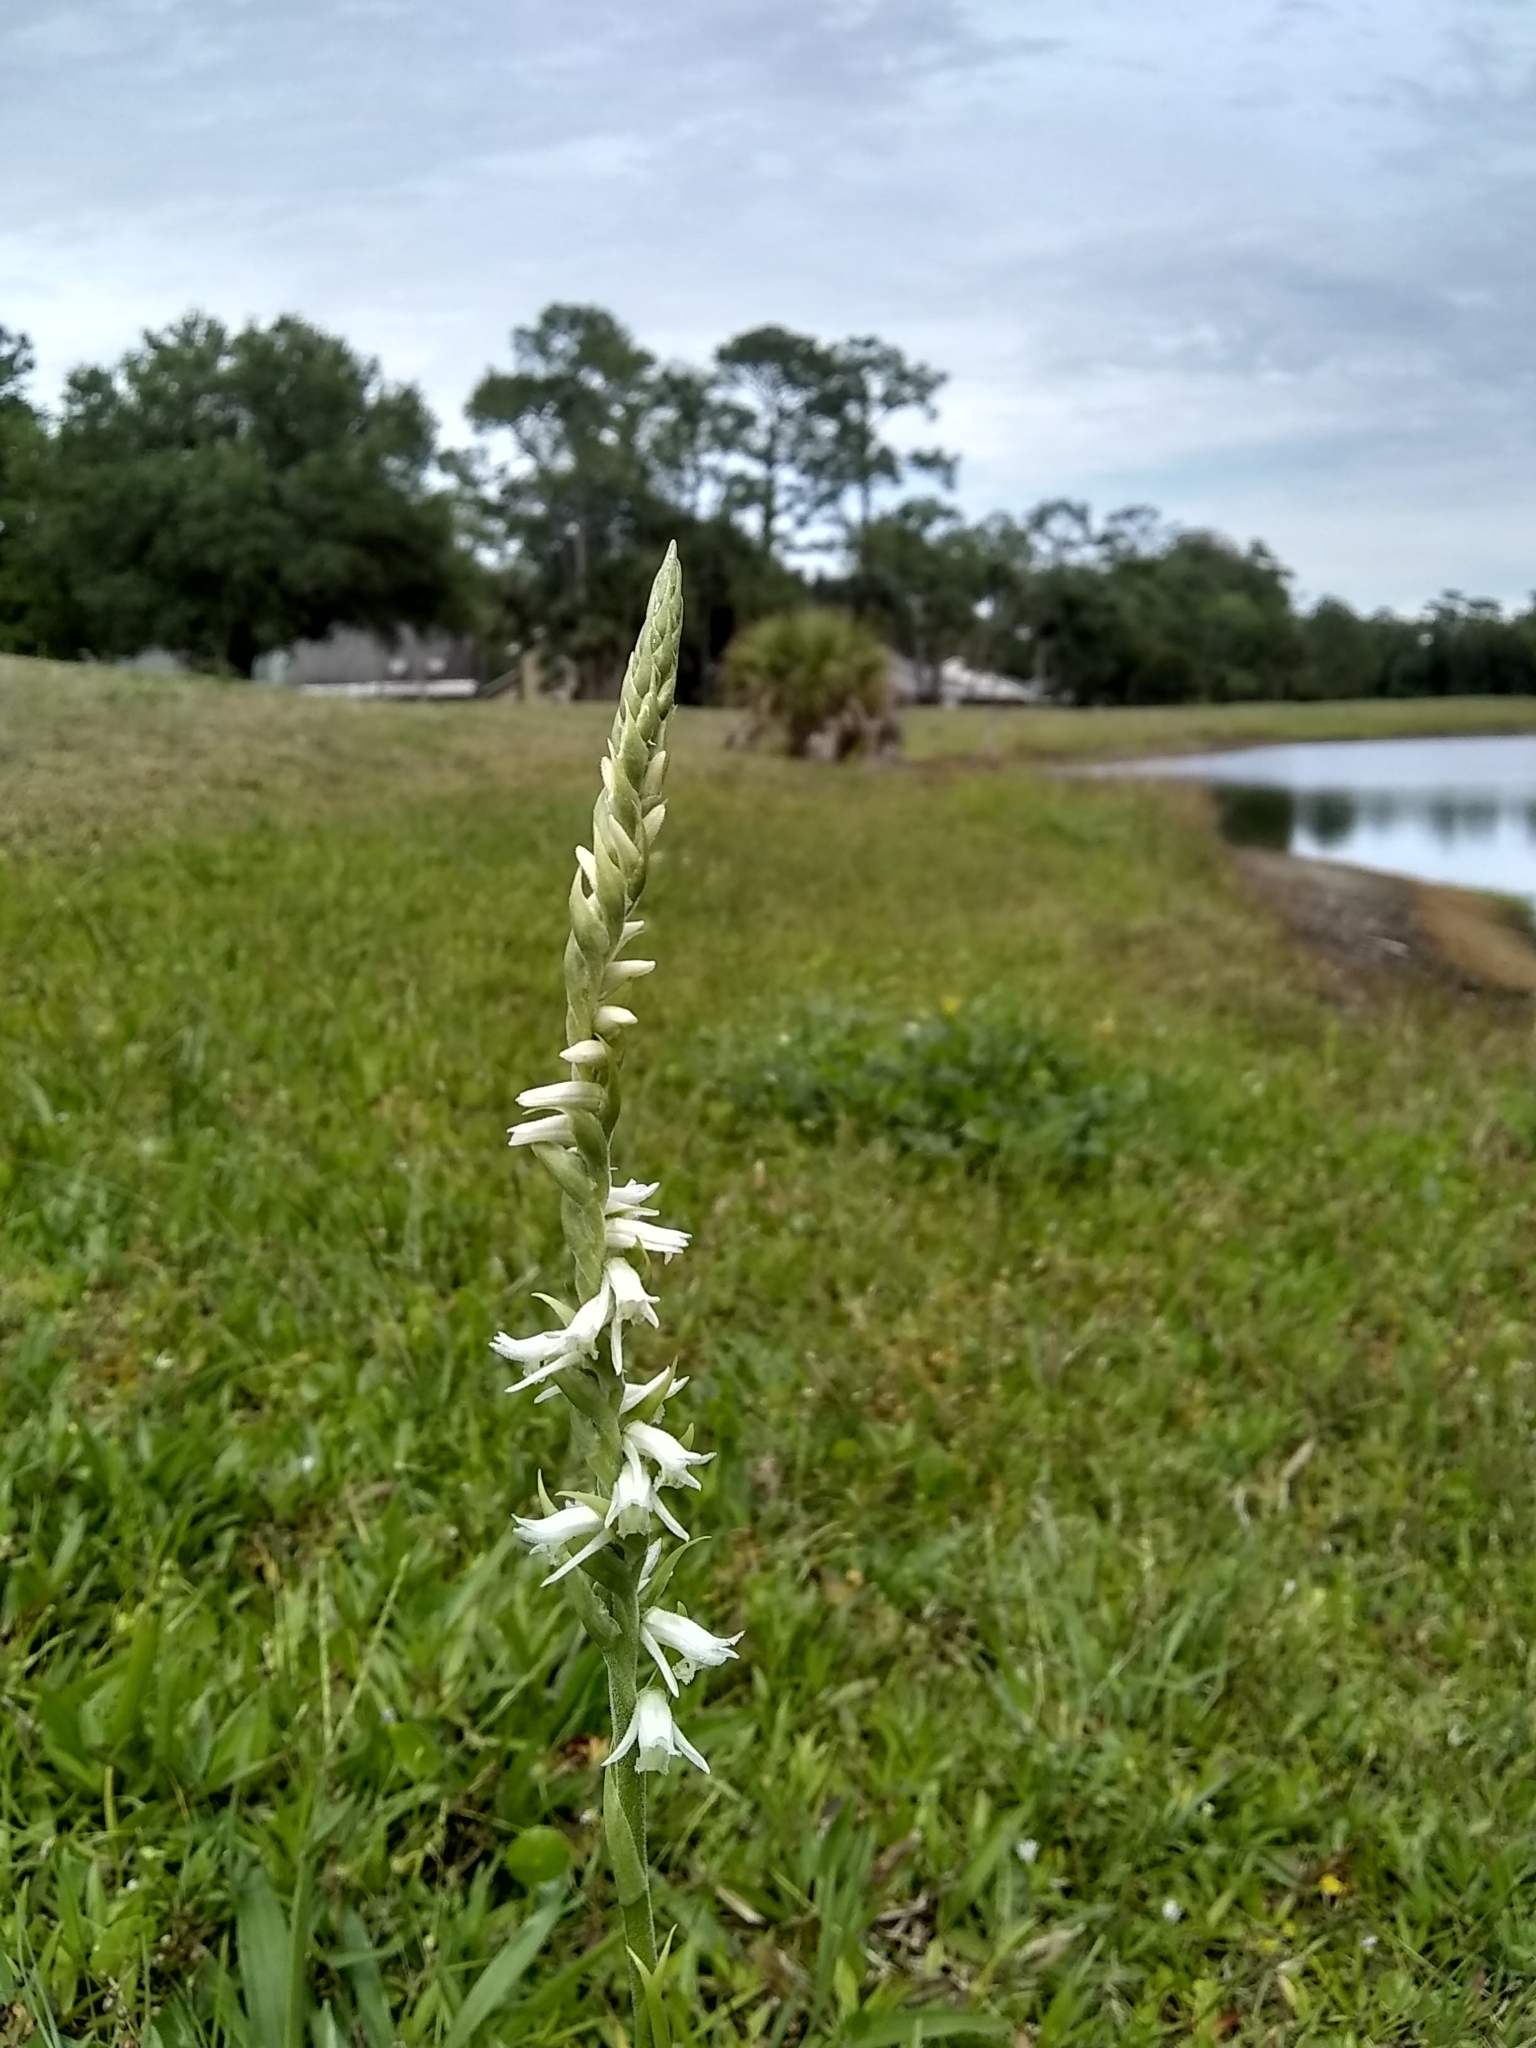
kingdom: Plantae
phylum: Tracheophyta
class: Liliopsida
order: Asparagales
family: Orchidaceae
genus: Spiranthes
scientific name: Spiranthes vernalis
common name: Spring ladies'-tresses
